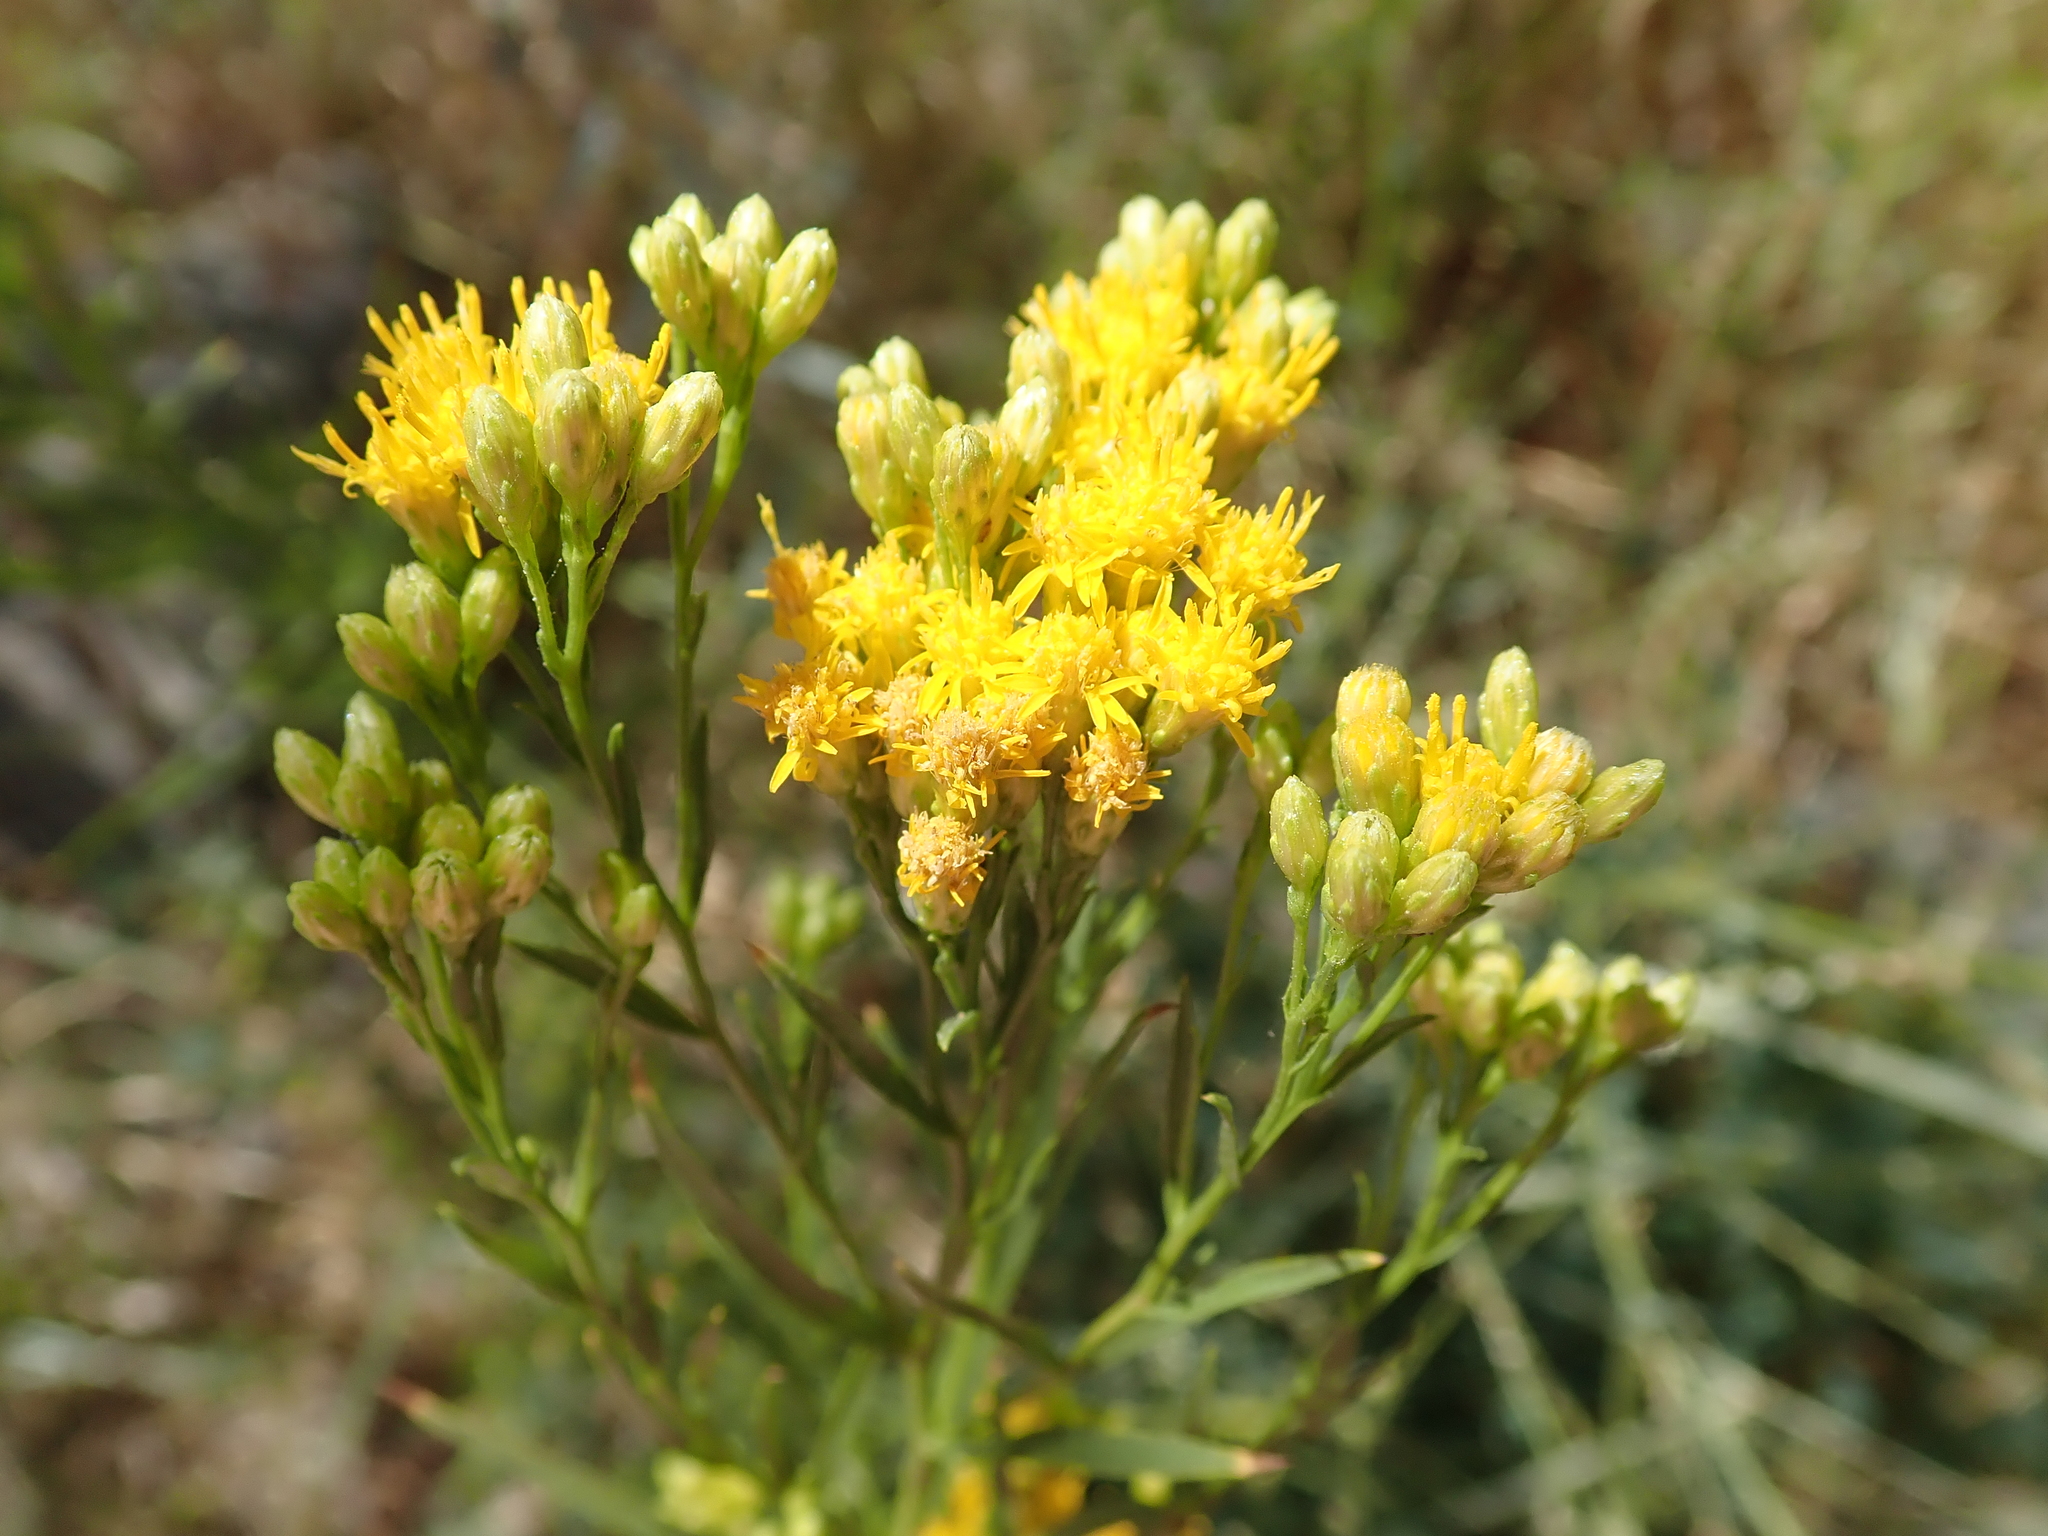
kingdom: Plantae
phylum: Tracheophyta
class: Magnoliopsida
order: Asterales
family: Asteraceae
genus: Euthamia
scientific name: Euthamia occidentalis
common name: Western goldentop
